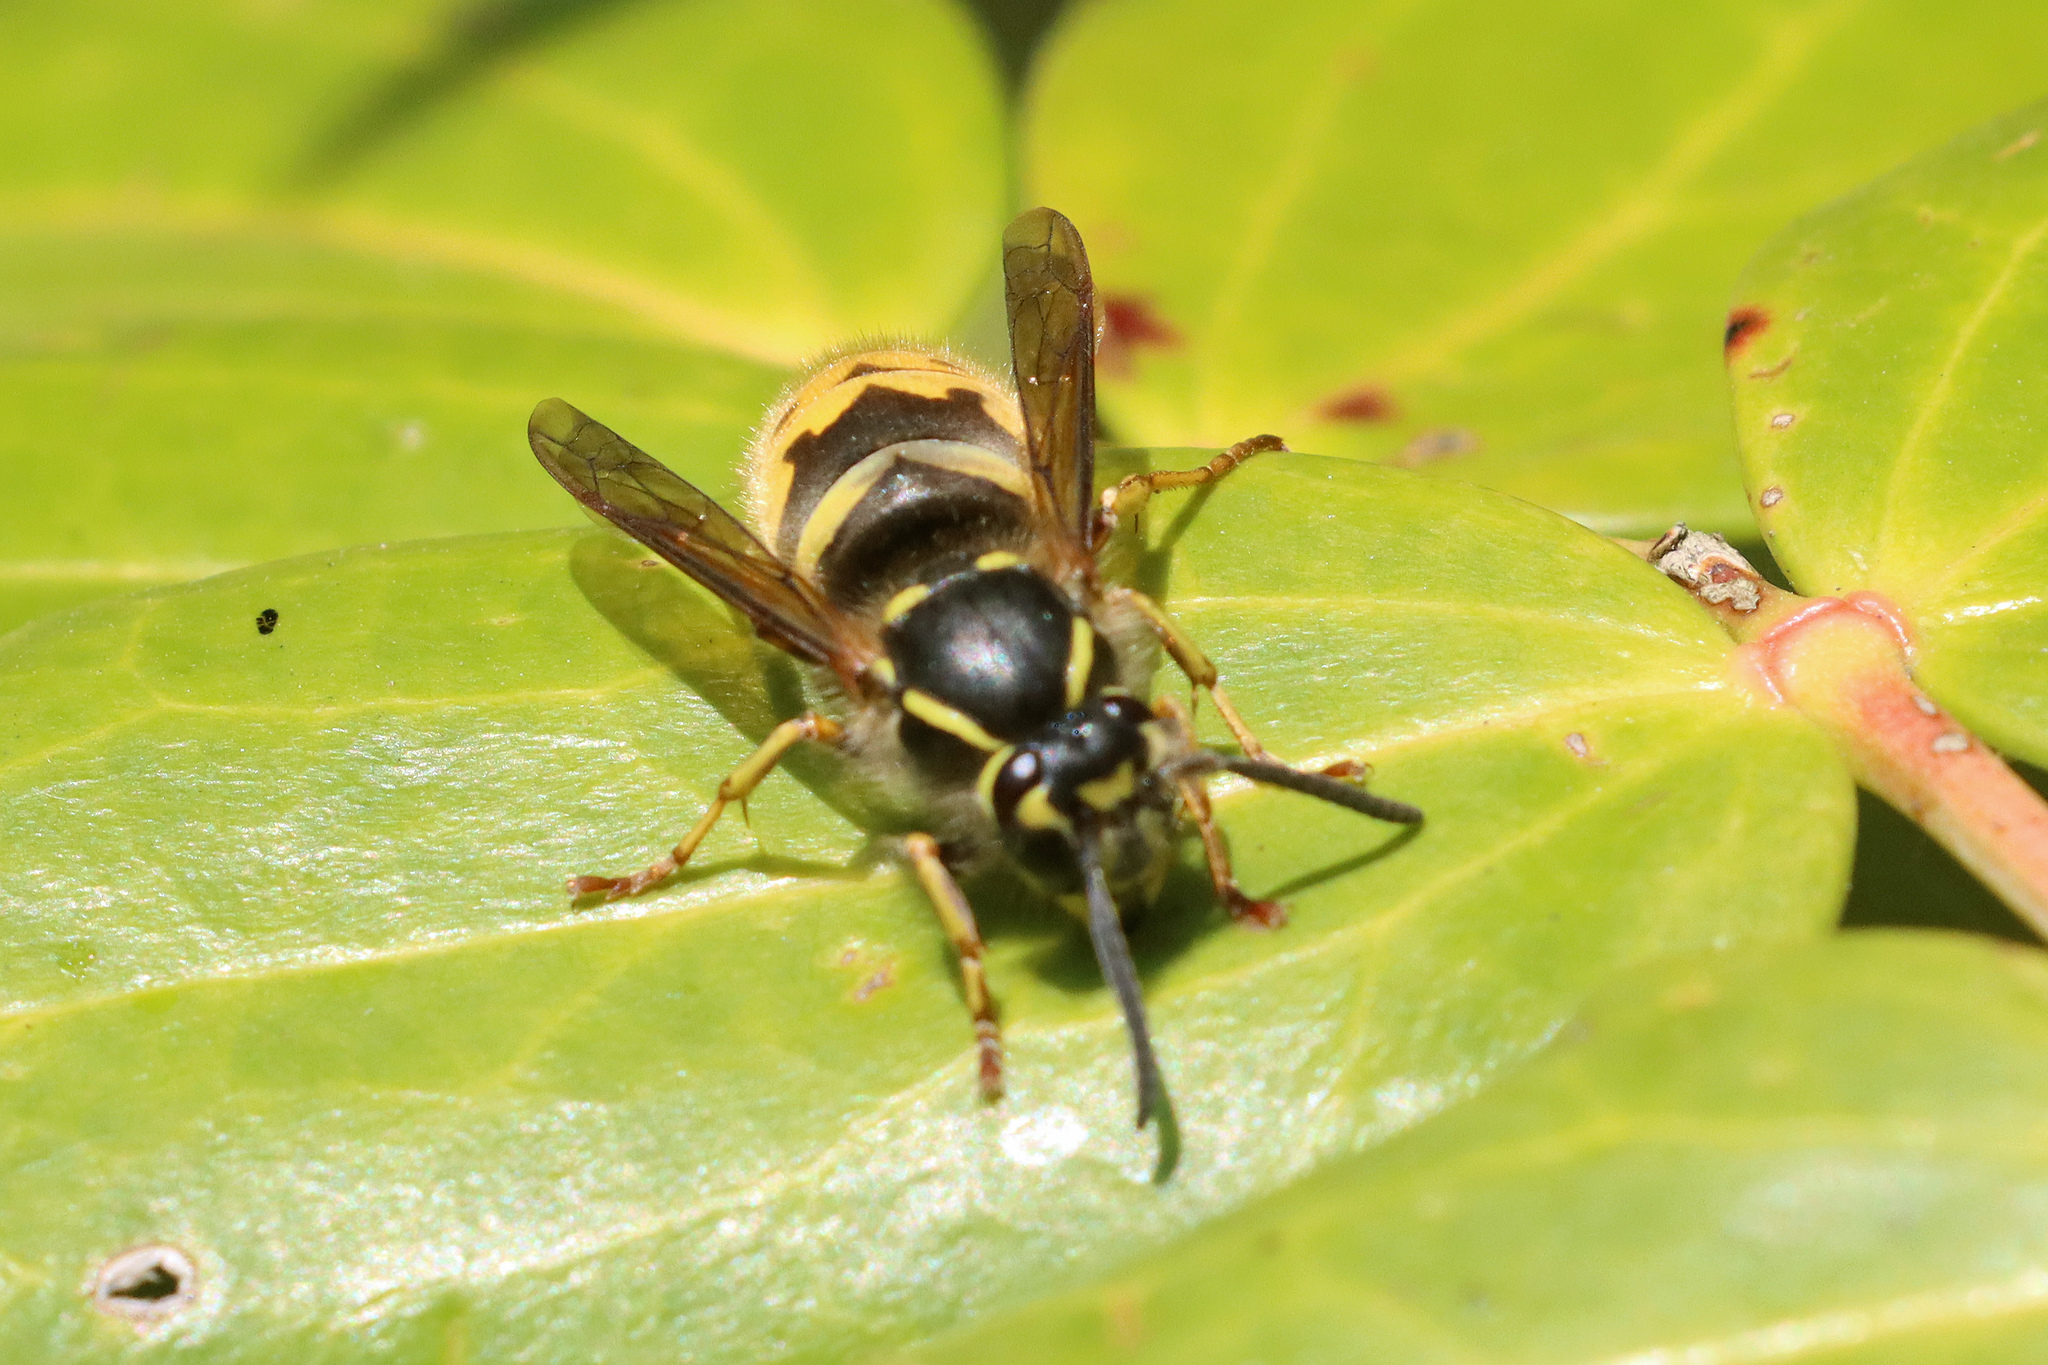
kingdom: Animalia
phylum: Arthropoda
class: Insecta
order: Hymenoptera
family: Vespidae
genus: Vespula
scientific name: Vespula vulgaris
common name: Common wasp
